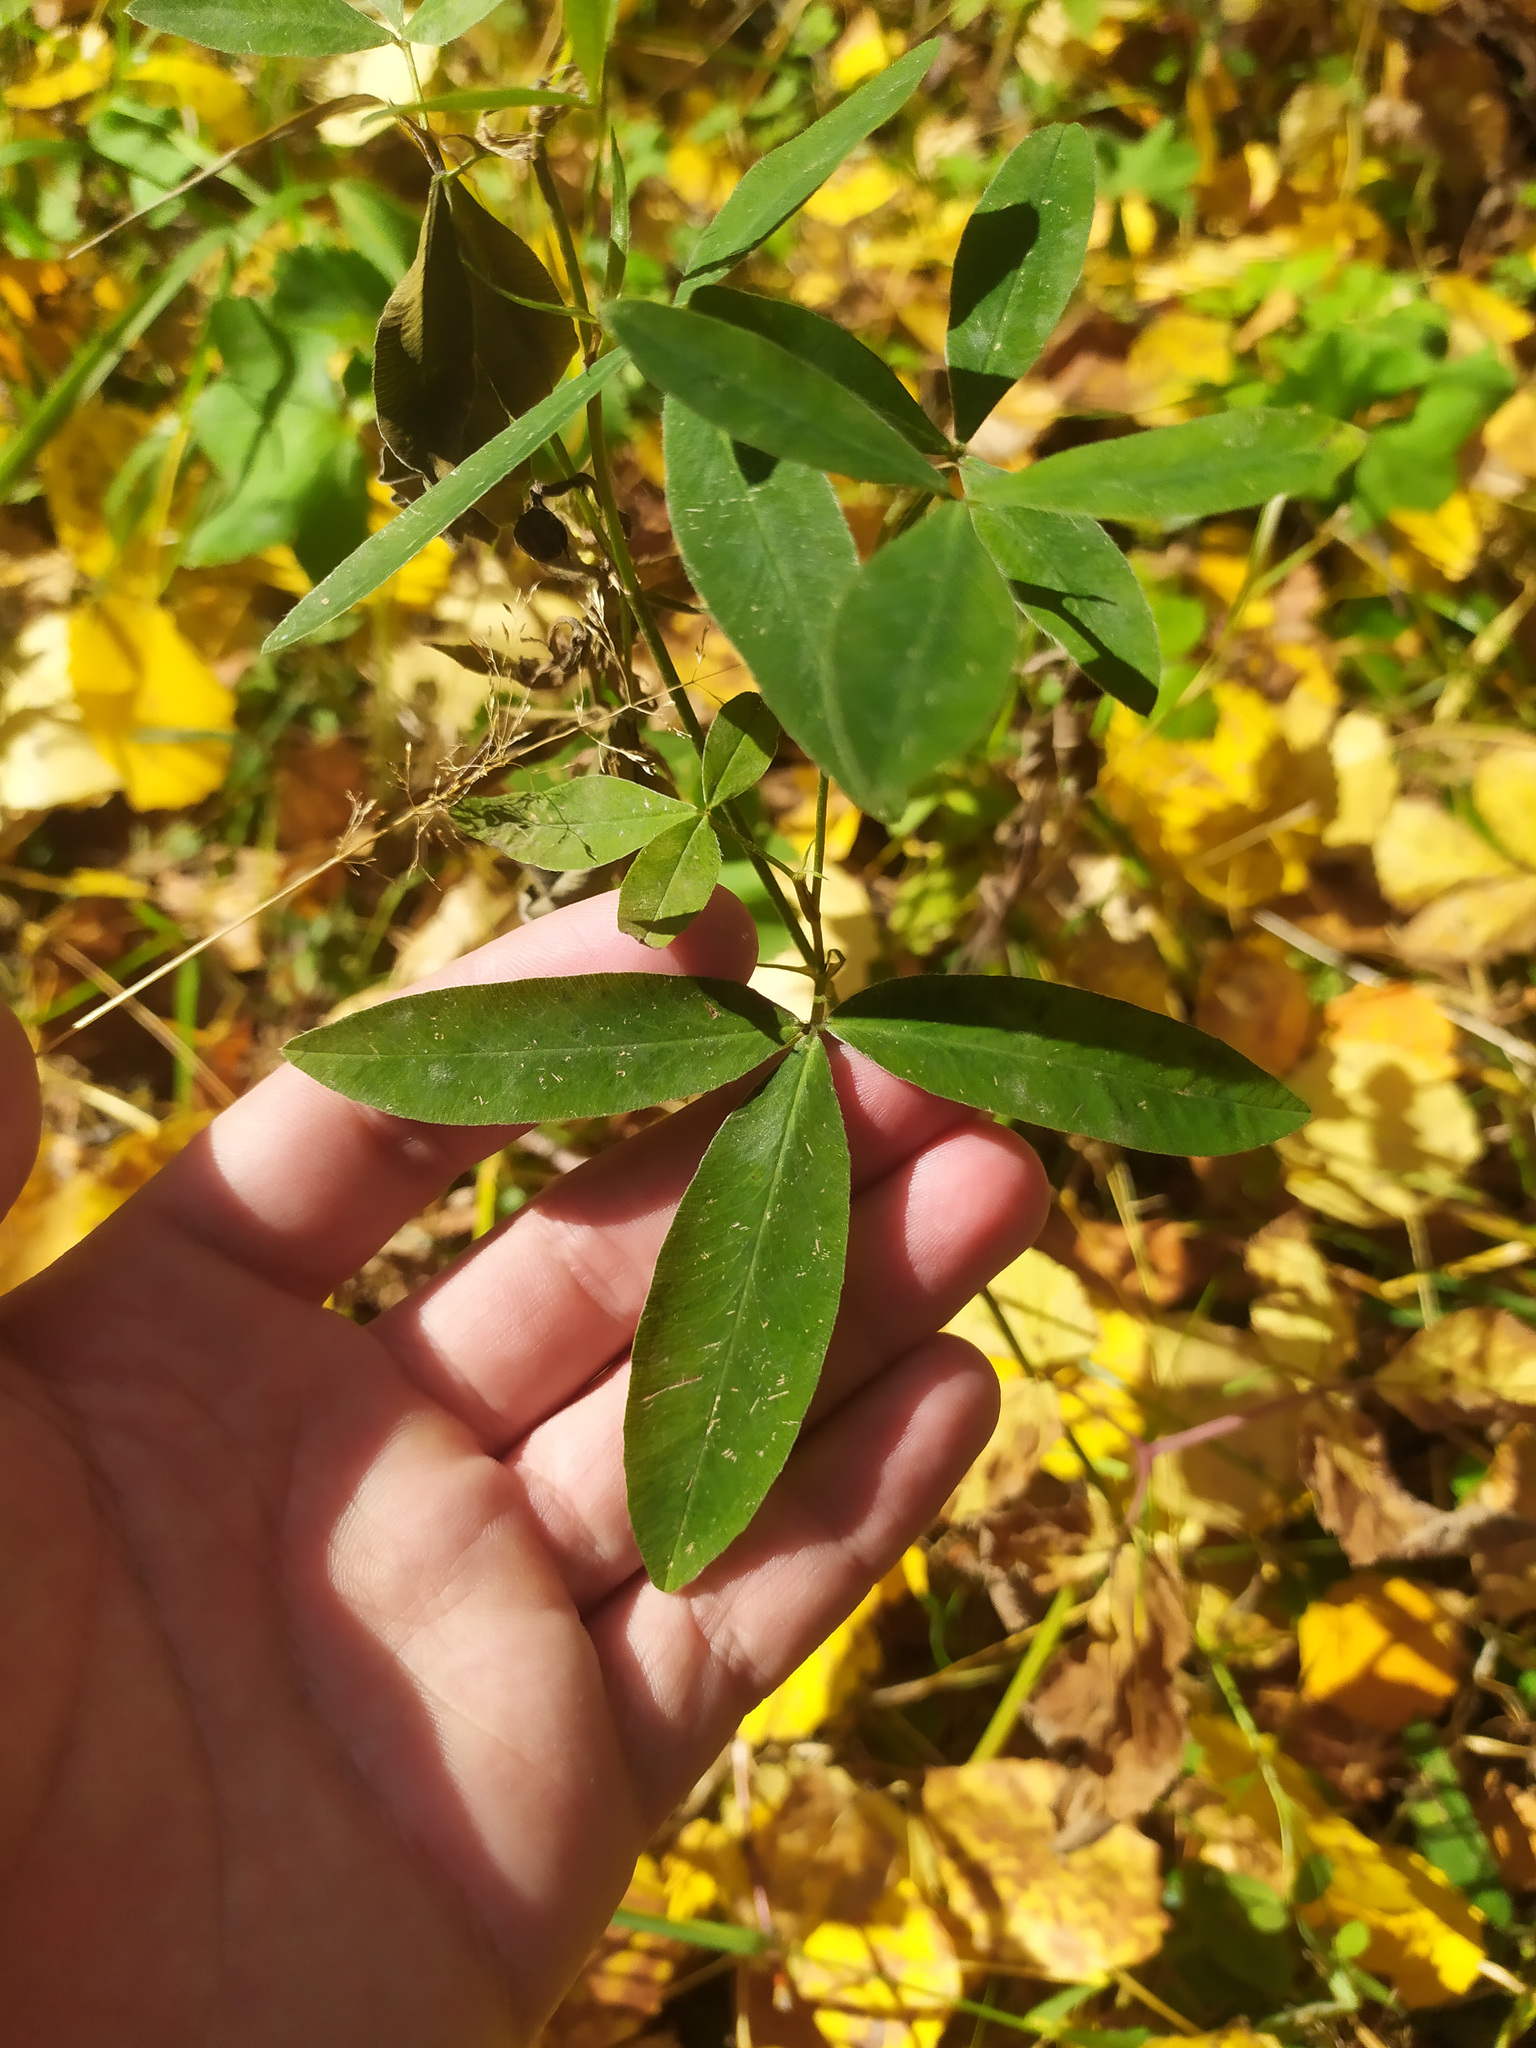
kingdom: Plantae
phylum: Tracheophyta
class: Magnoliopsida
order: Fabales
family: Fabaceae
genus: Trifolium
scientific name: Trifolium medium
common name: Zigzag clover
